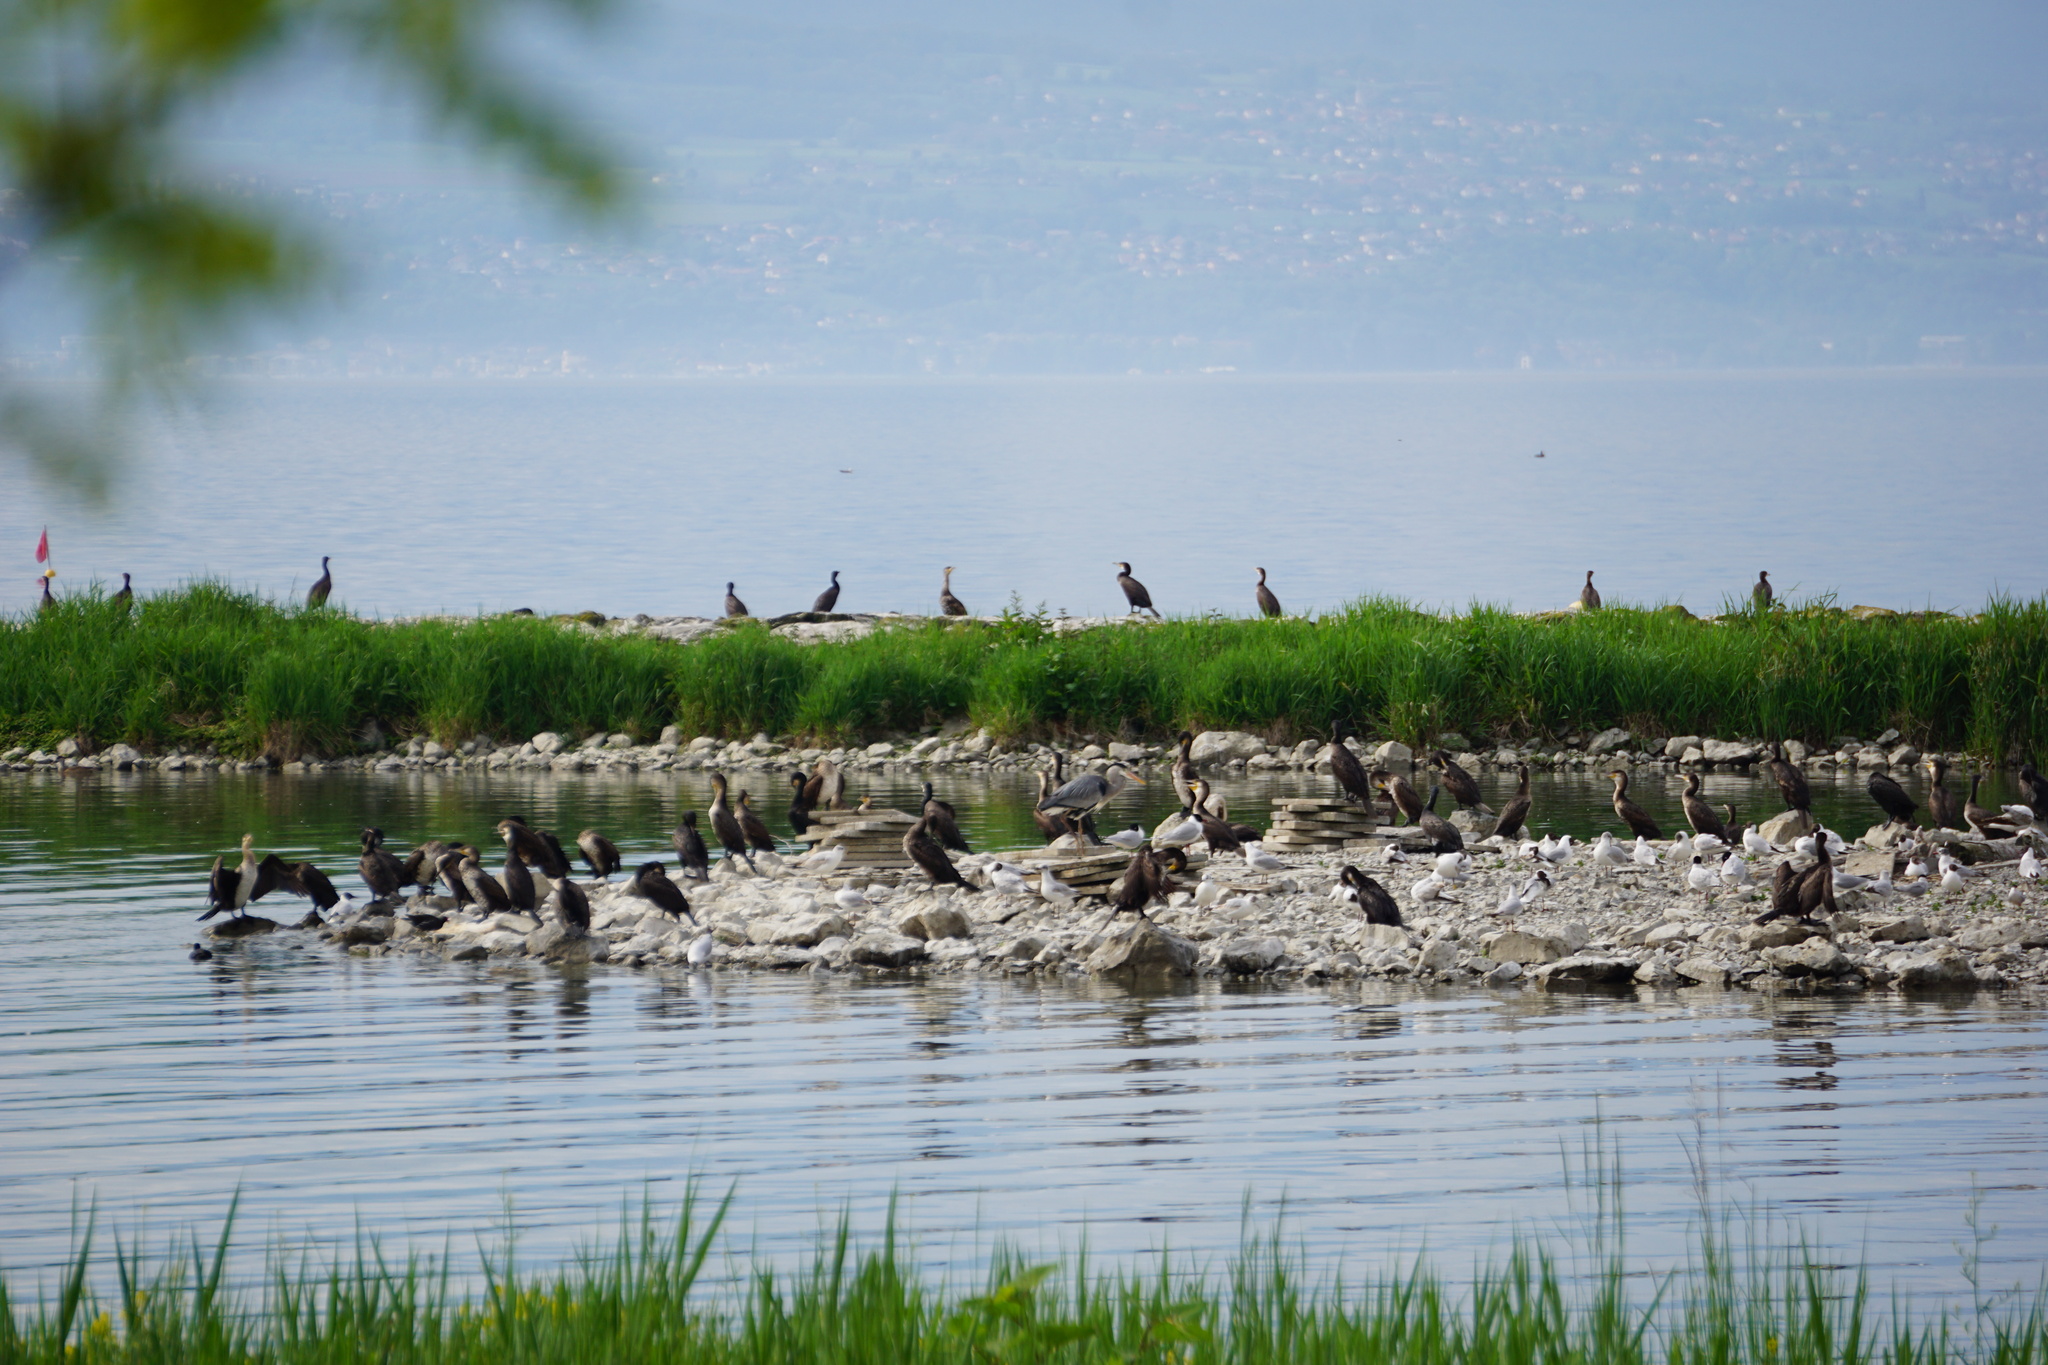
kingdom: Animalia
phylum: Chordata
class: Aves
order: Charadriiformes
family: Laridae
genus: Ichthyaetus
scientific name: Ichthyaetus melanocephalus
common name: Mediterranean gull
